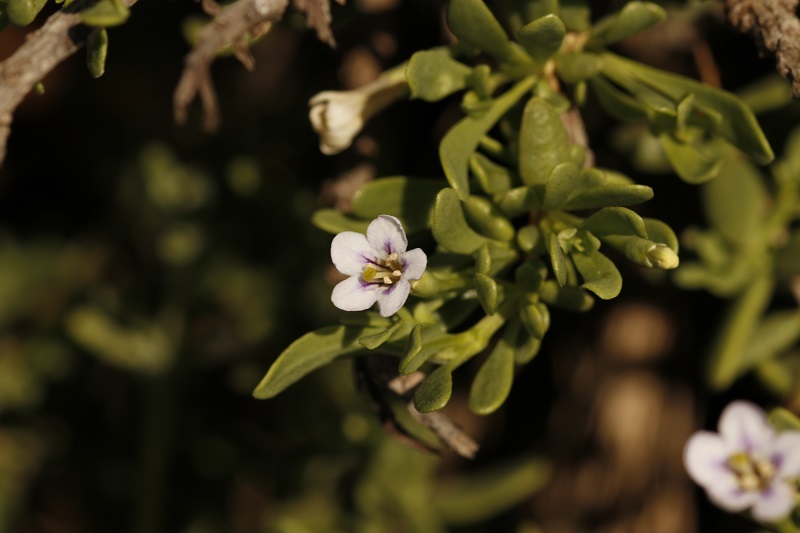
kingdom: Plantae
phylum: Tracheophyta
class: Magnoliopsida
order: Solanales
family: Solanaceae
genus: Lycium
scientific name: Lycium ferocissimum
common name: African boxthorn
